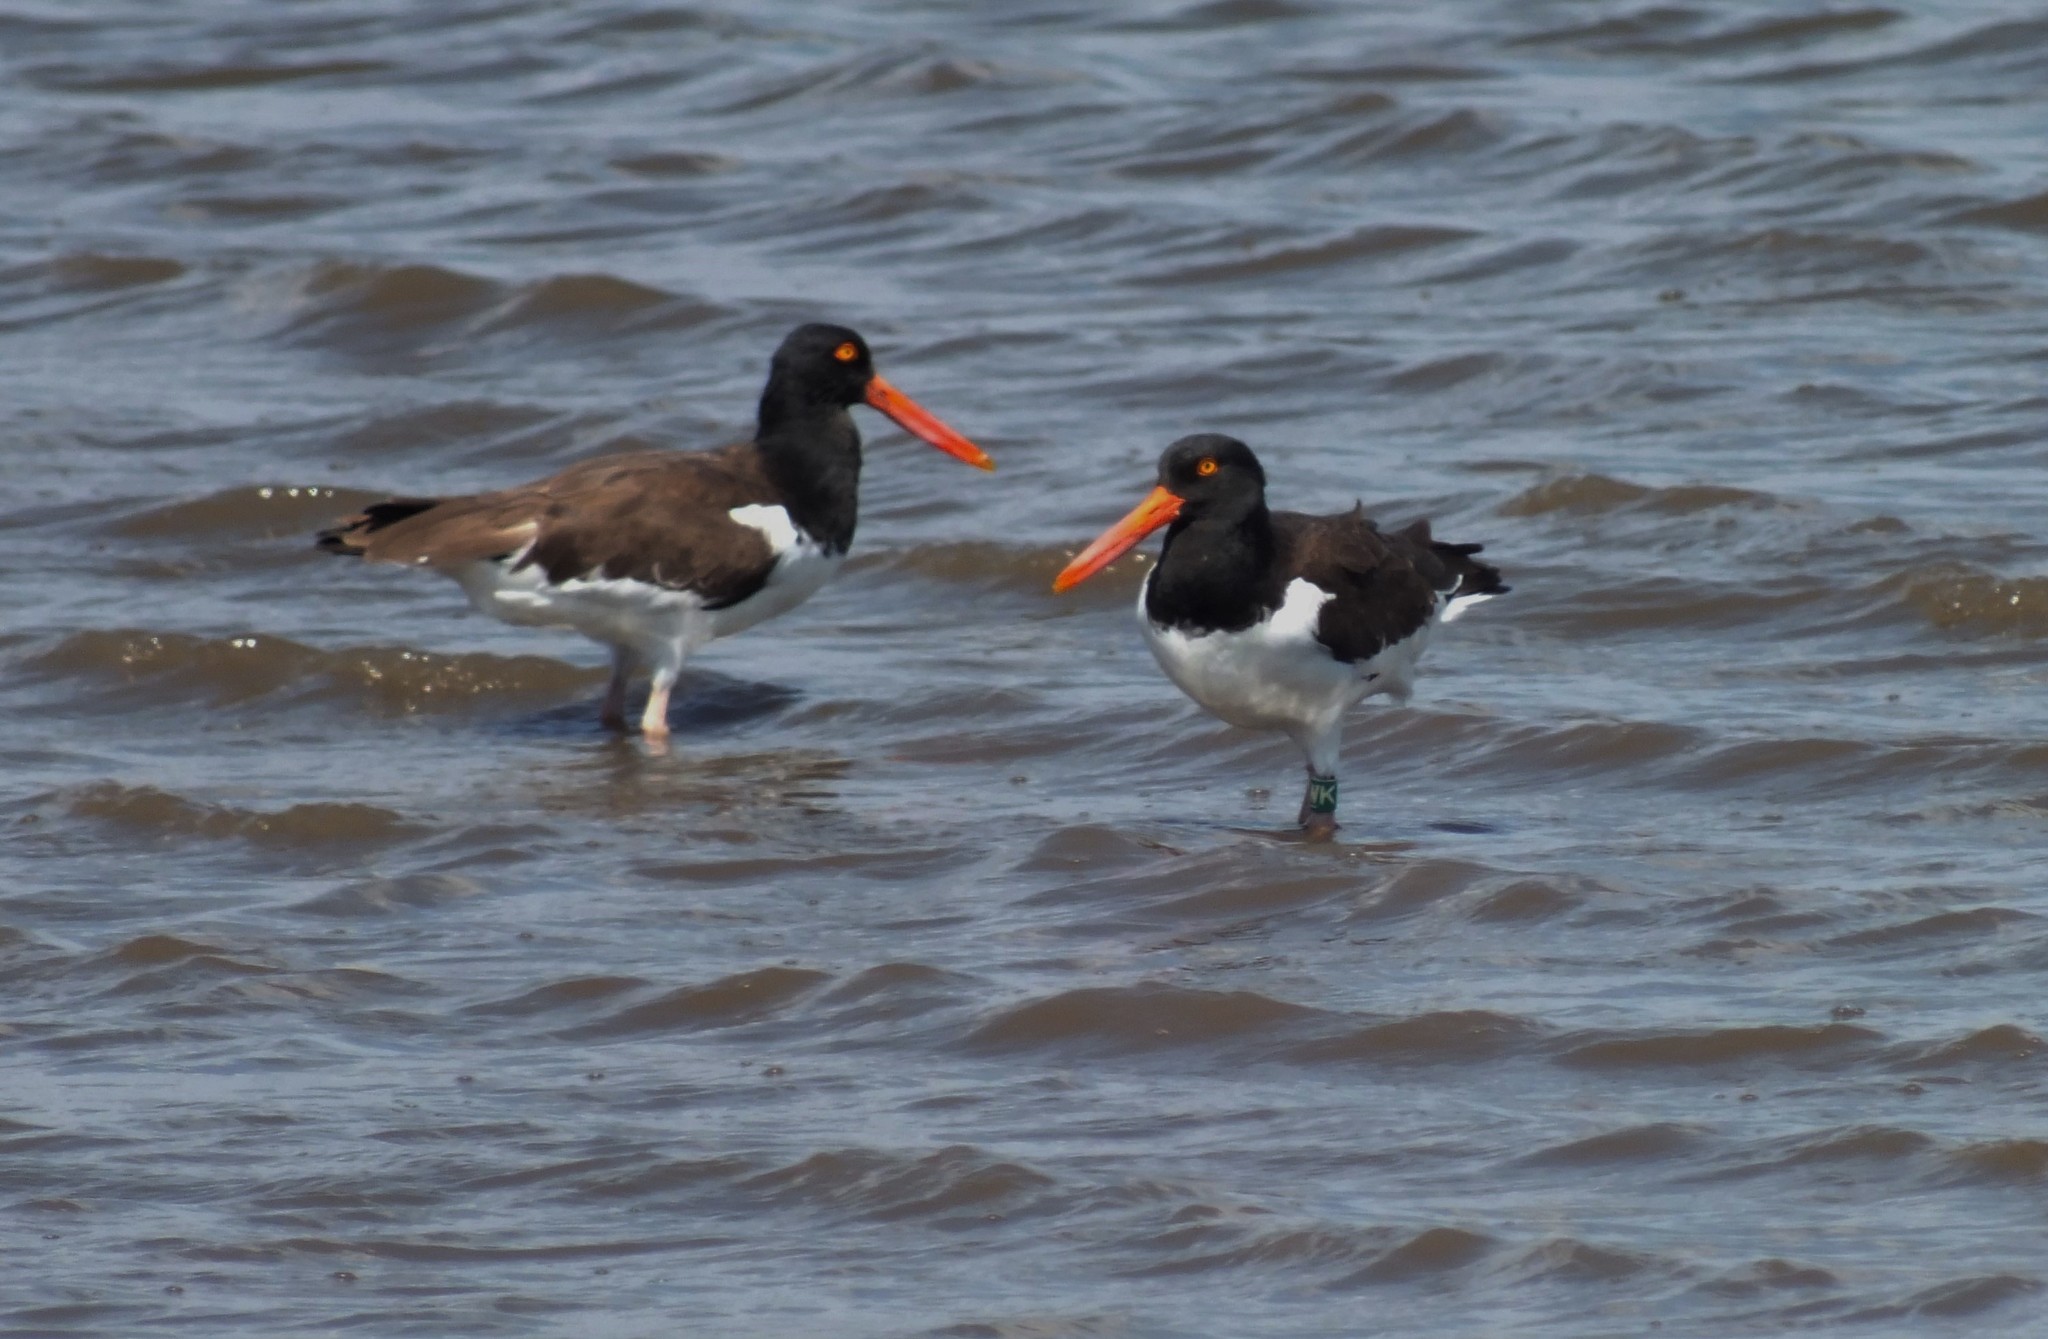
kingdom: Animalia
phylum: Chordata
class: Aves
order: Charadriiformes
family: Haematopodidae
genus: Haematopus
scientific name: Haematopus palliatus
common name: American oystercatcher
